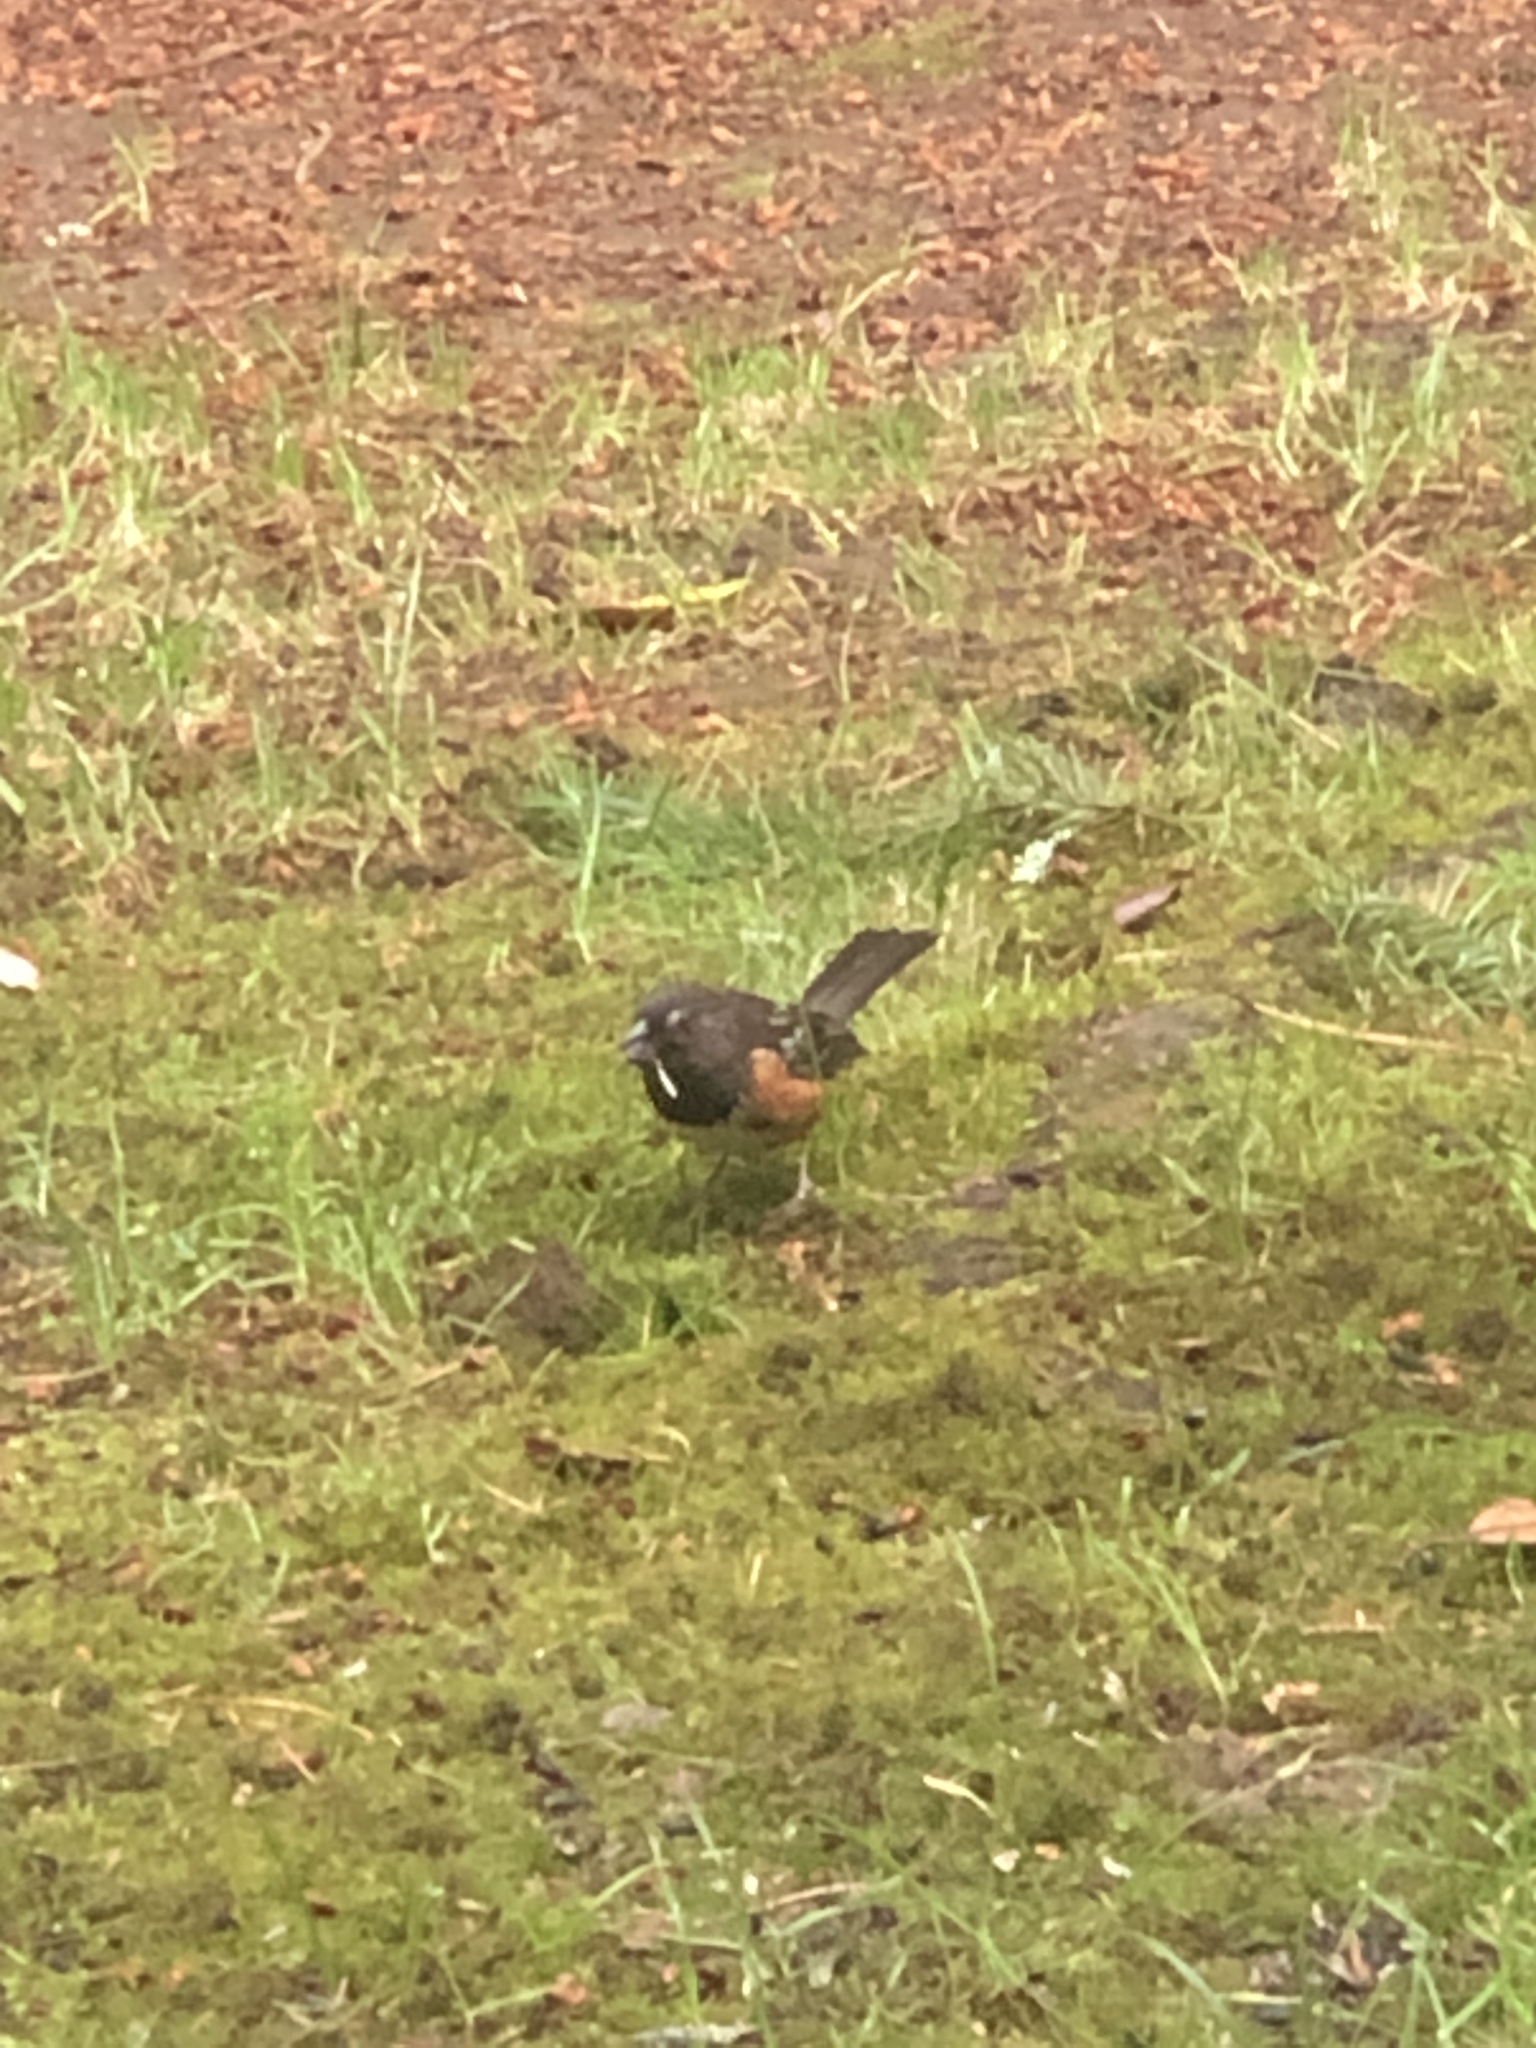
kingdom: Animalia
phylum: Chordata
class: Aves
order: Passeriformes
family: Passerellidae
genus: Pipilo
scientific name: Pipilo maculatus
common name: Spotted towhee
